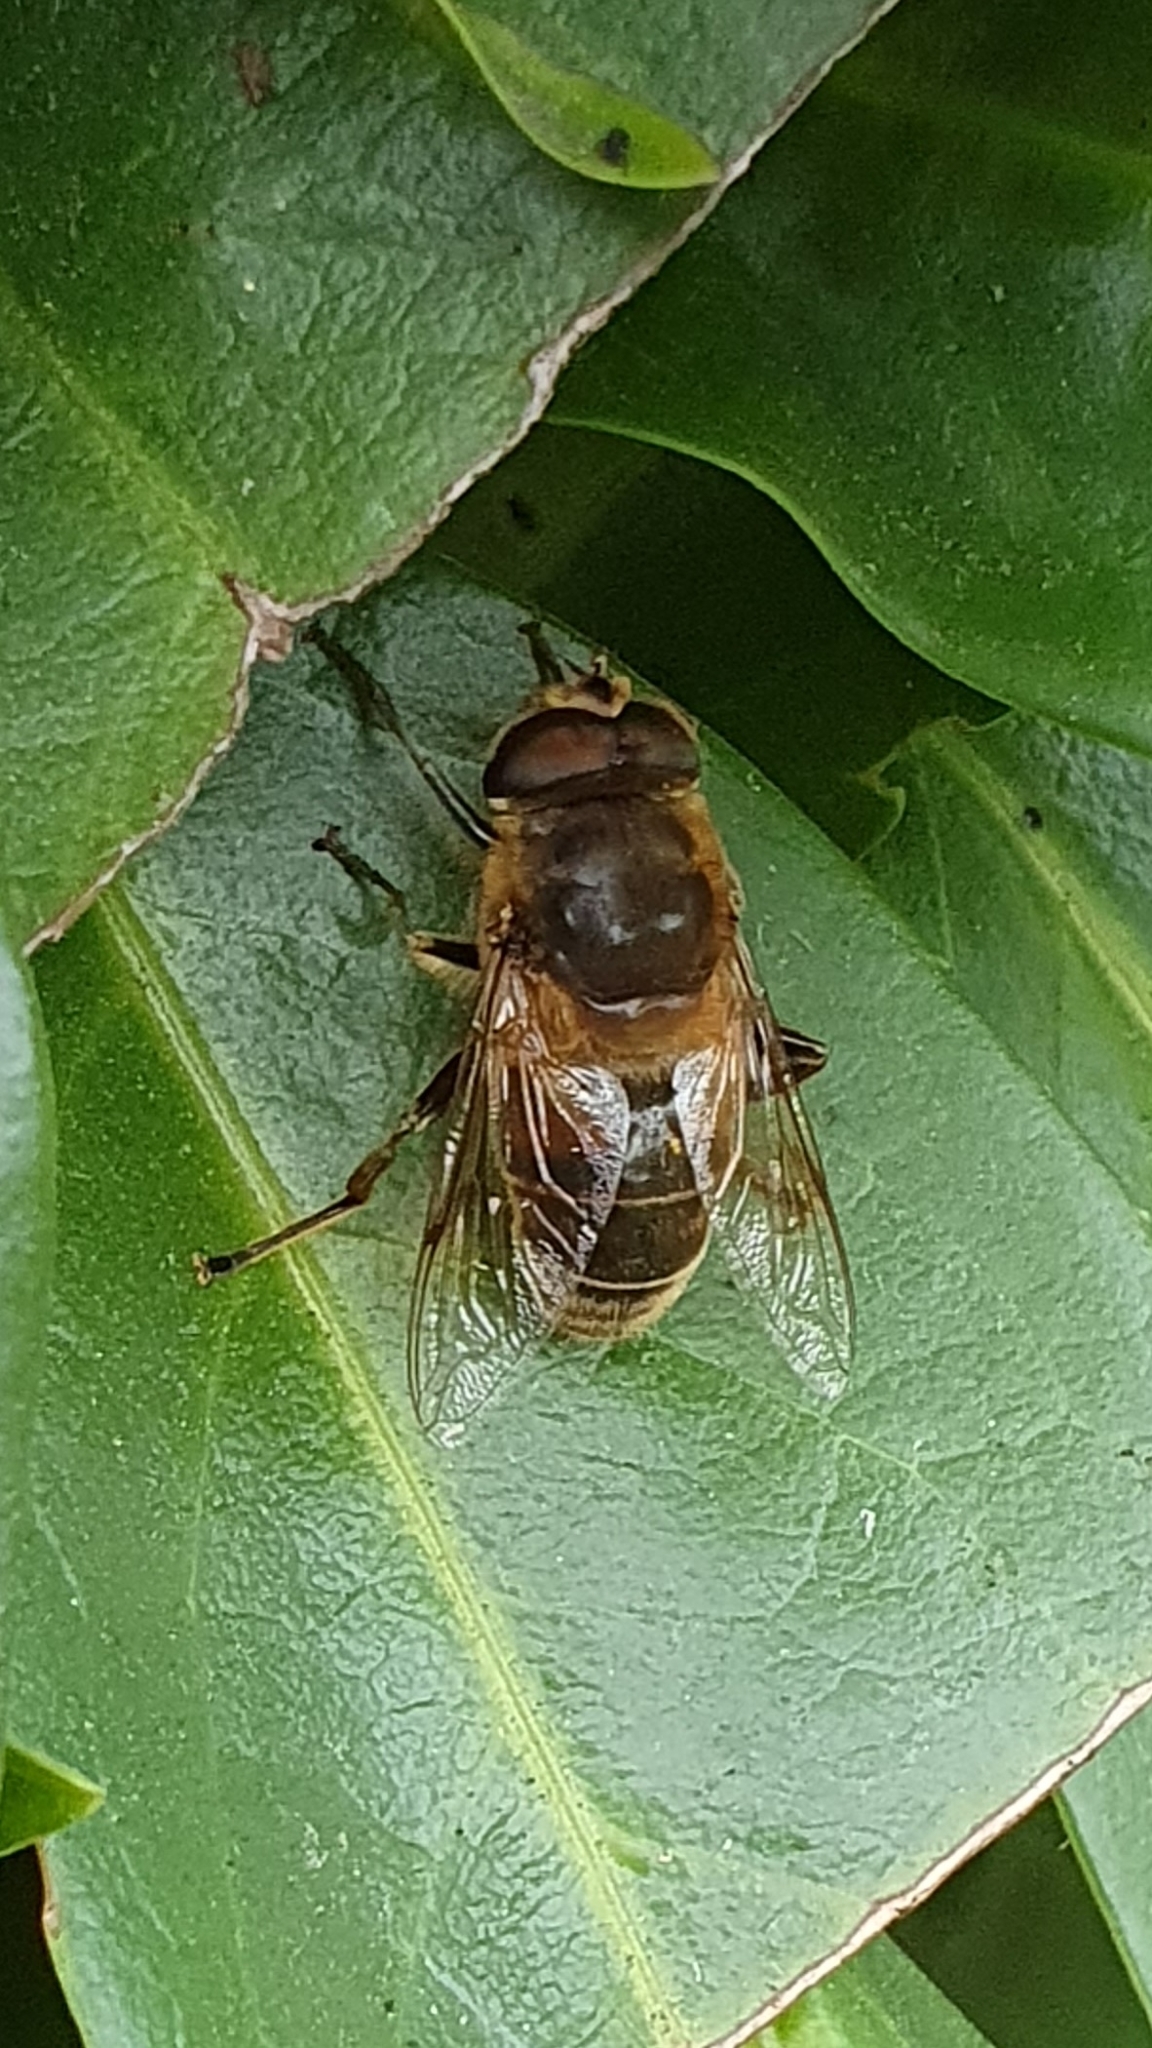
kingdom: Animalia
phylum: Arthropoda
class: Insecta
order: Diptera
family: Syrphidae
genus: Eristalis
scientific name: Eristalis pertinax
